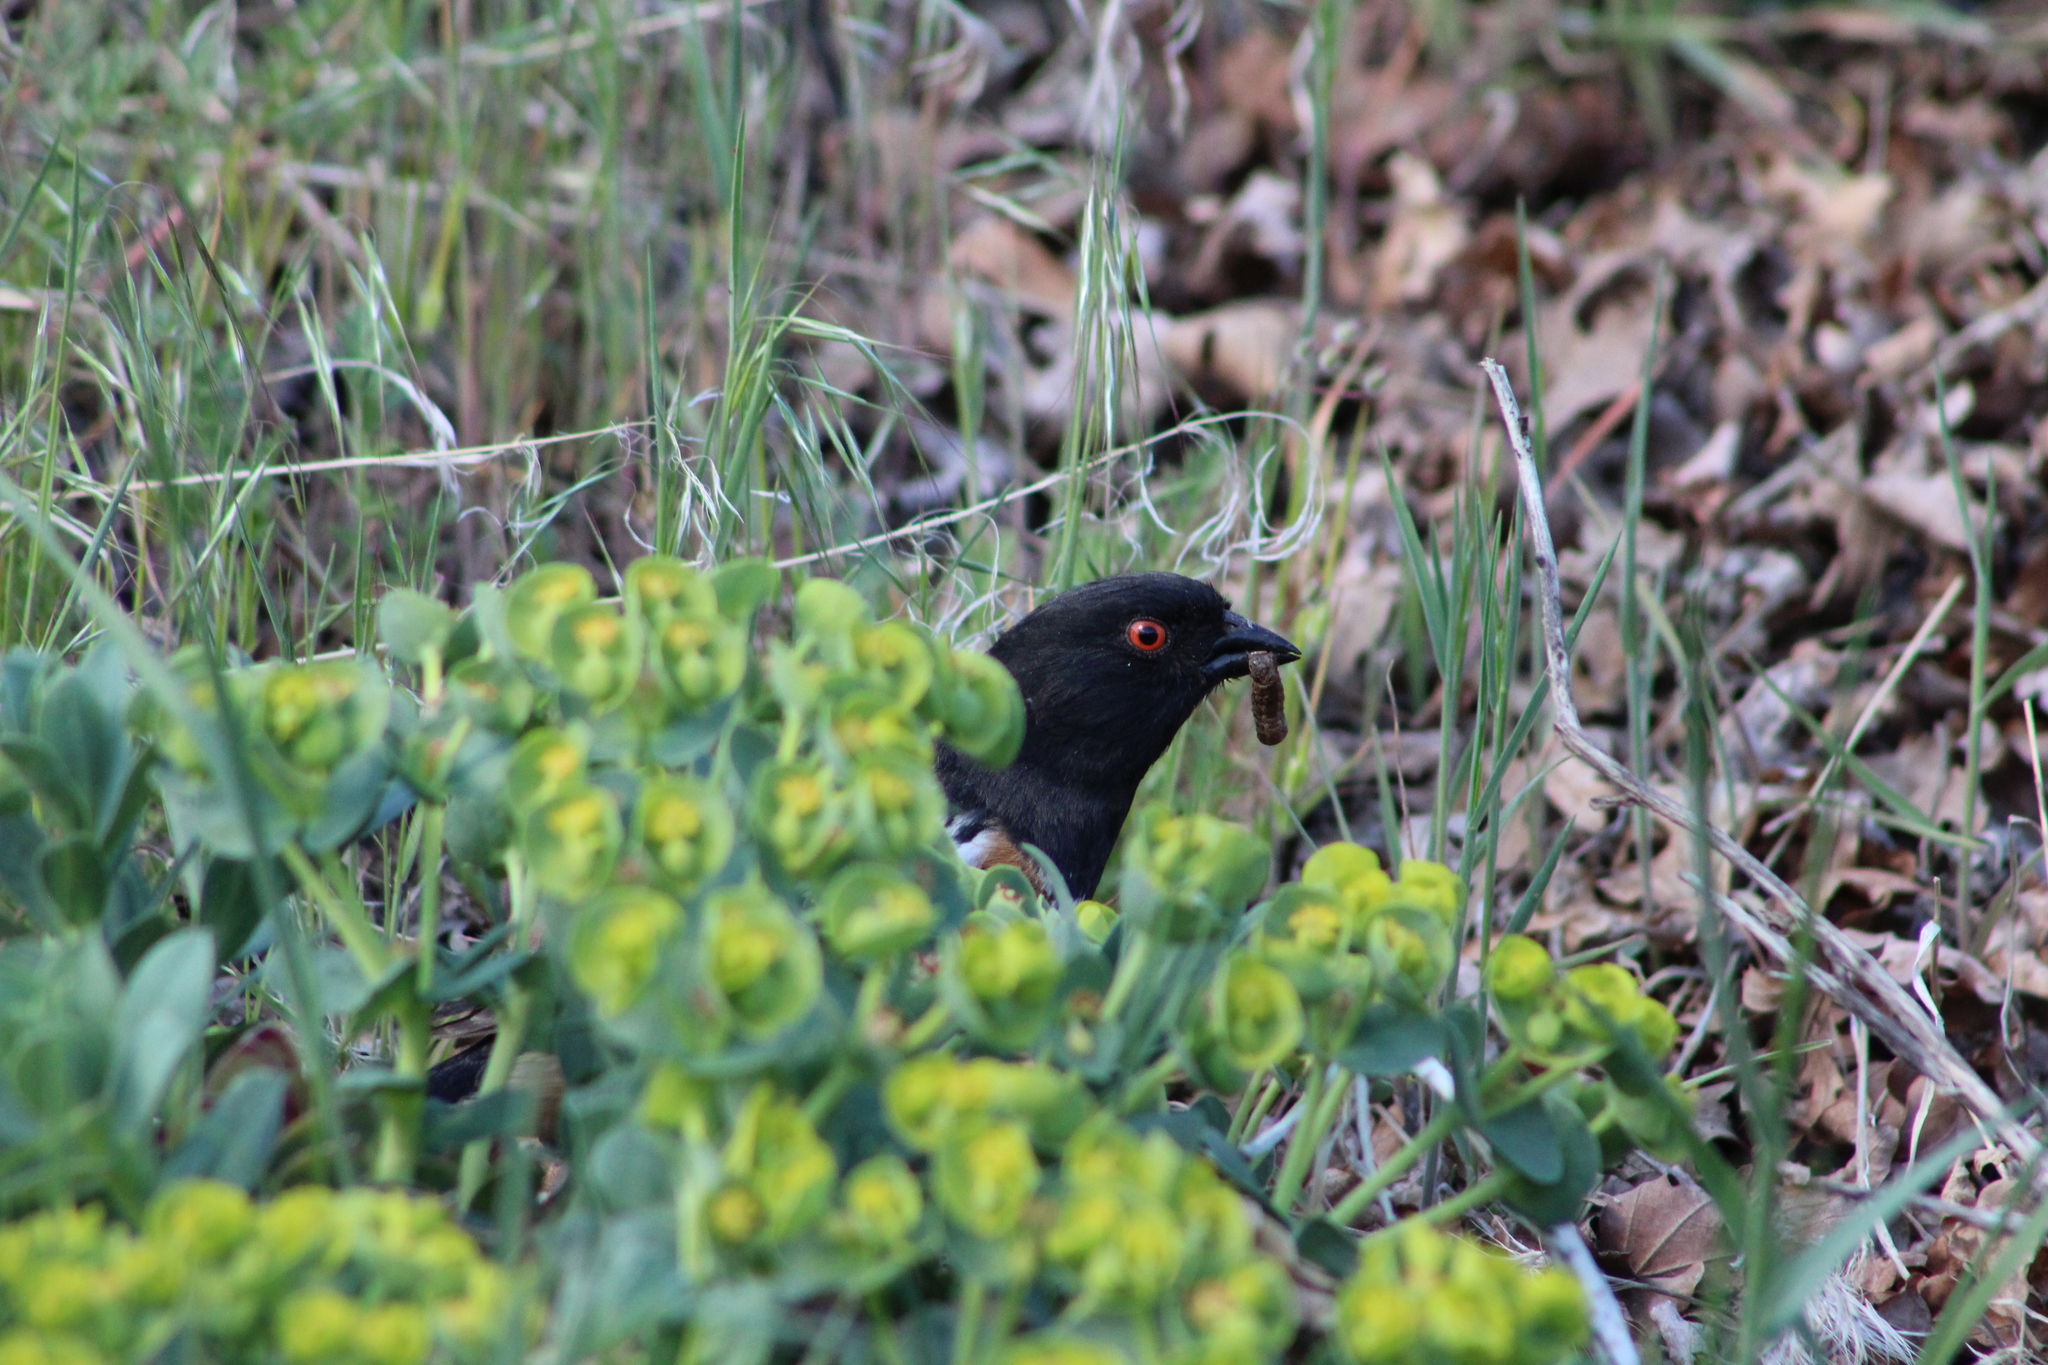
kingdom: Animalia
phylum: Chordata
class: Aves
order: Passeriformes
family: Passerellidae
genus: Pipilo
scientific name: Pipilo maculatus
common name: Spotted towhee
